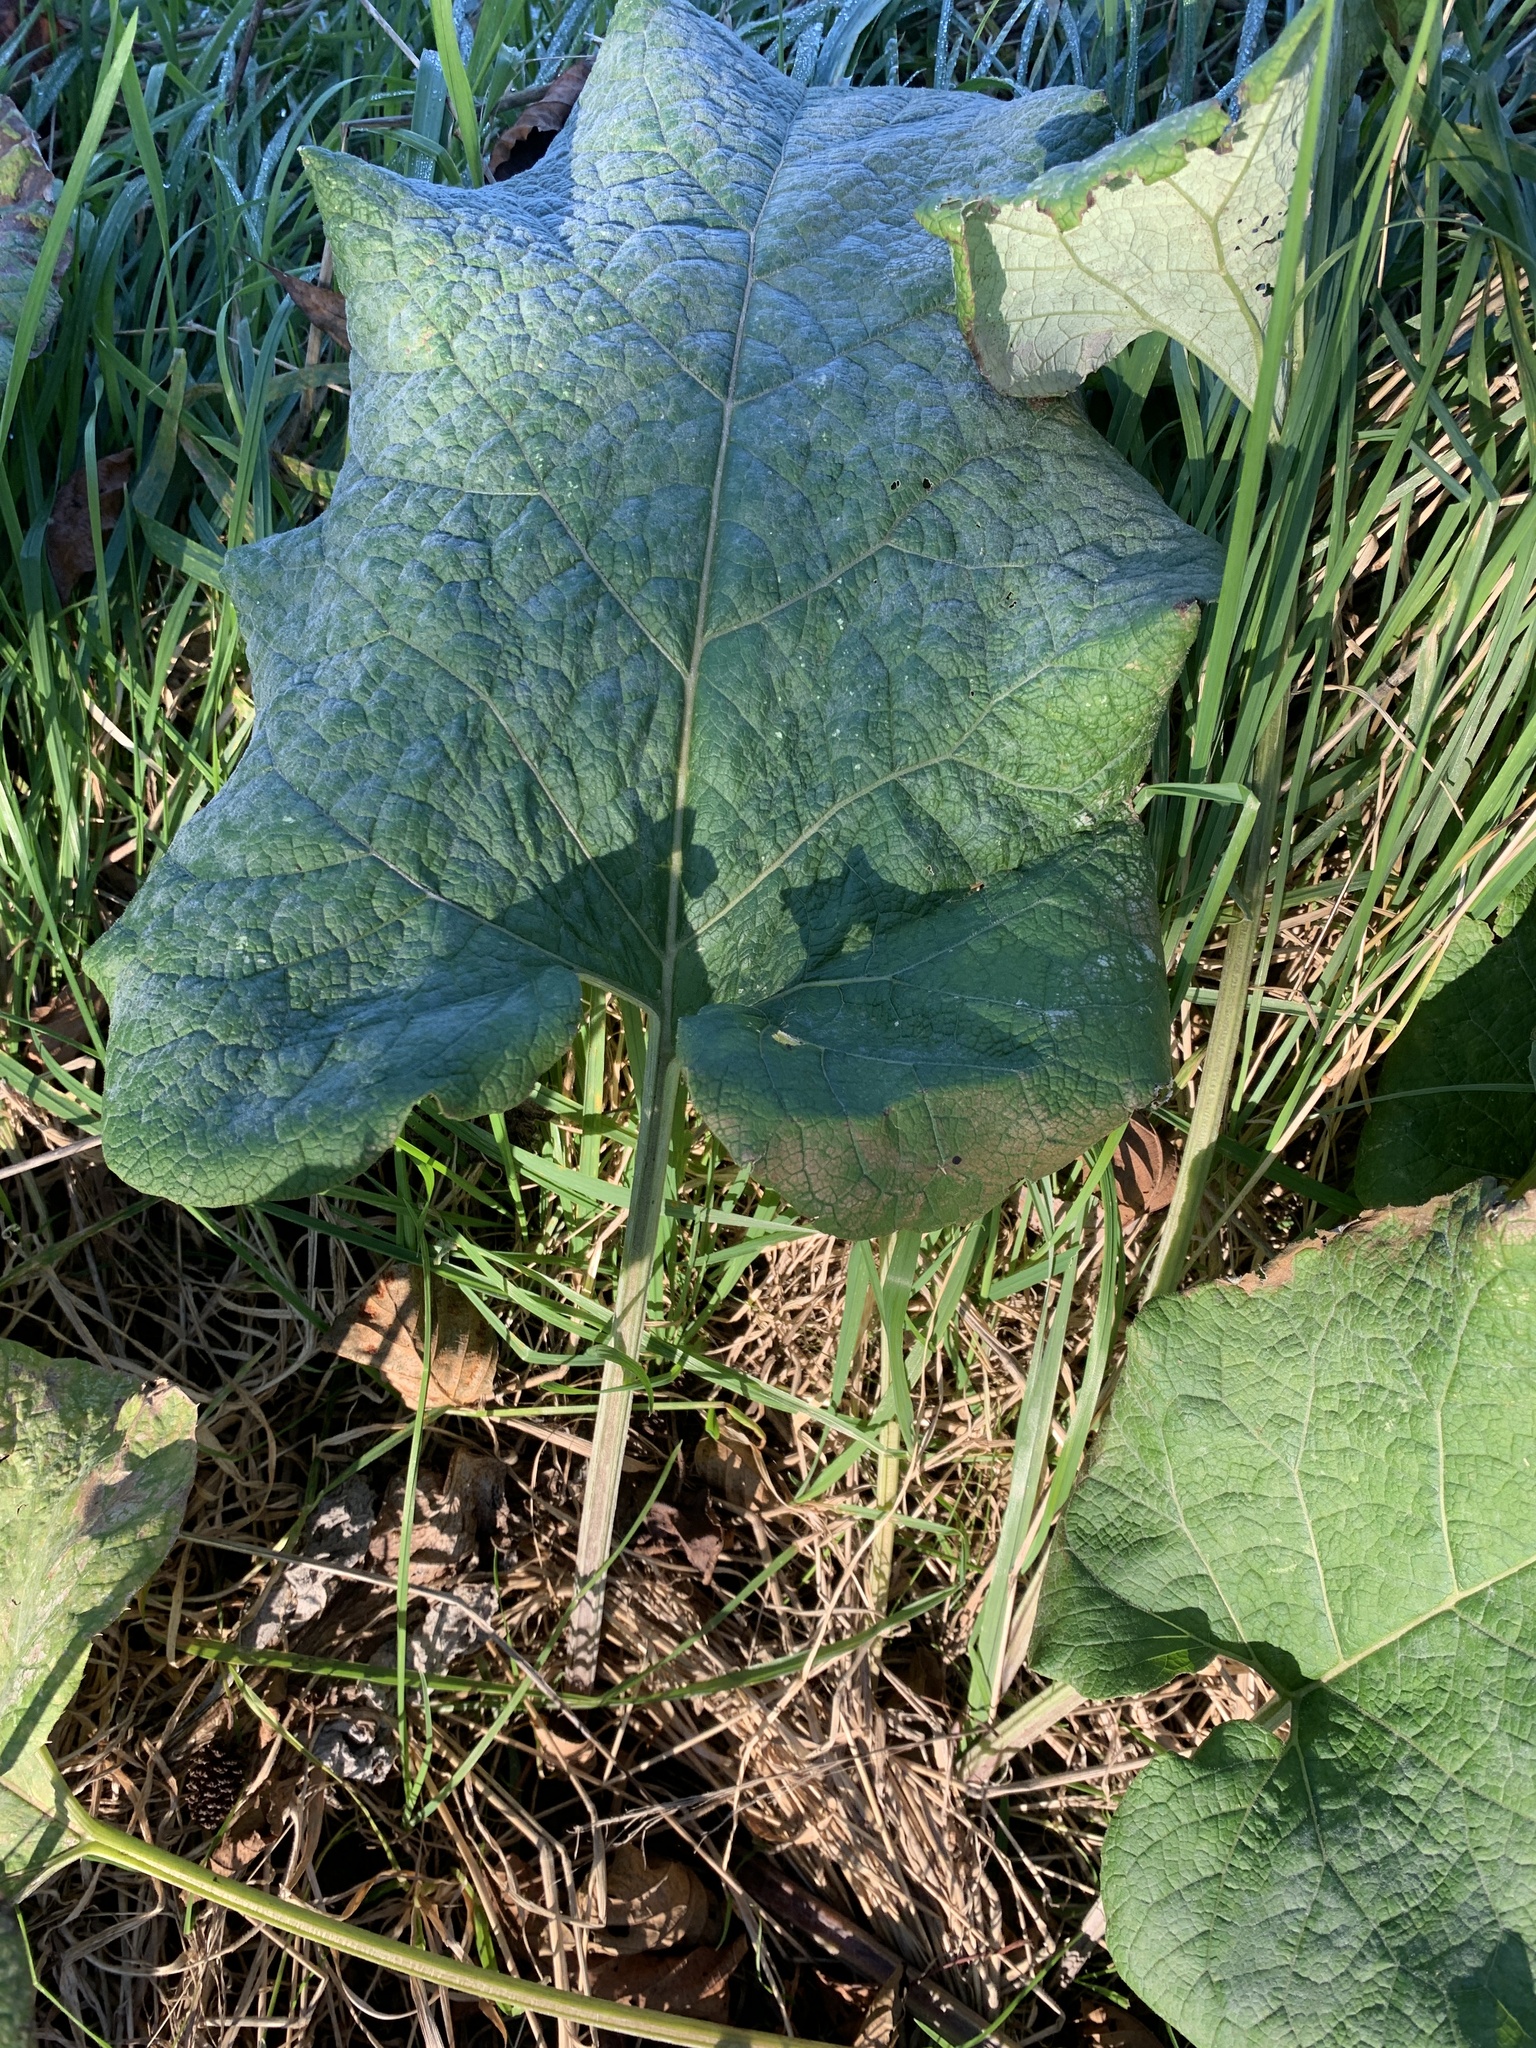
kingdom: Plantae
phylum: Tracheophyta
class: Magnoliopsida
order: Asterales
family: Asteraceae
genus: Arctium
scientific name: Arctium lappa
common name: Greater burdock
